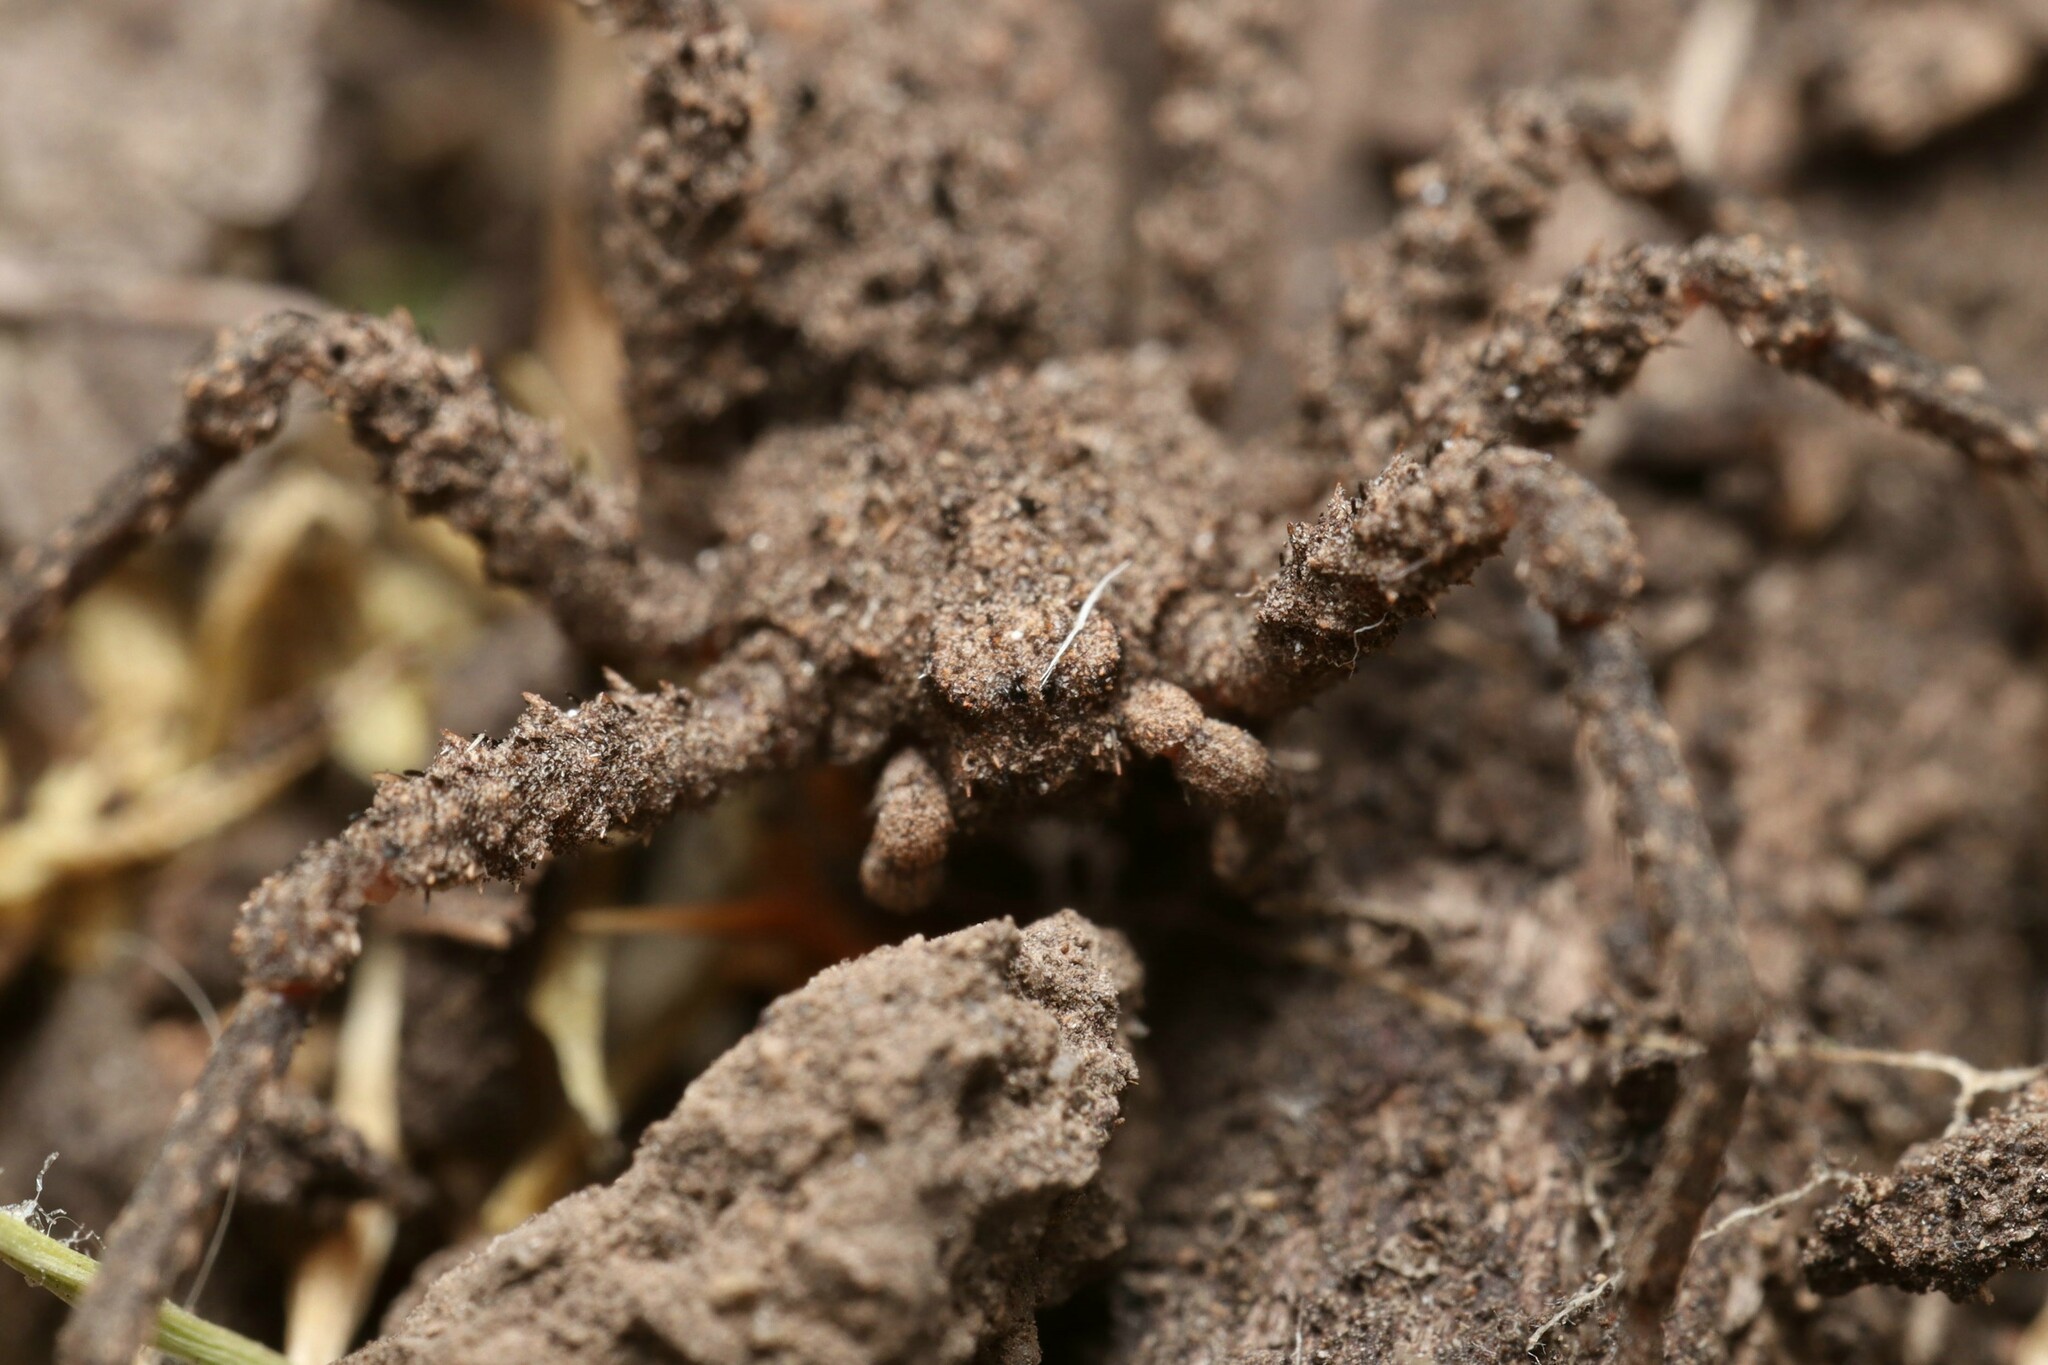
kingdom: Animalia
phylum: Arthropoda
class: Arachnida
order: Araneae
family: Sicariidae
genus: Sicarius
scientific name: Sicarius fumosus
